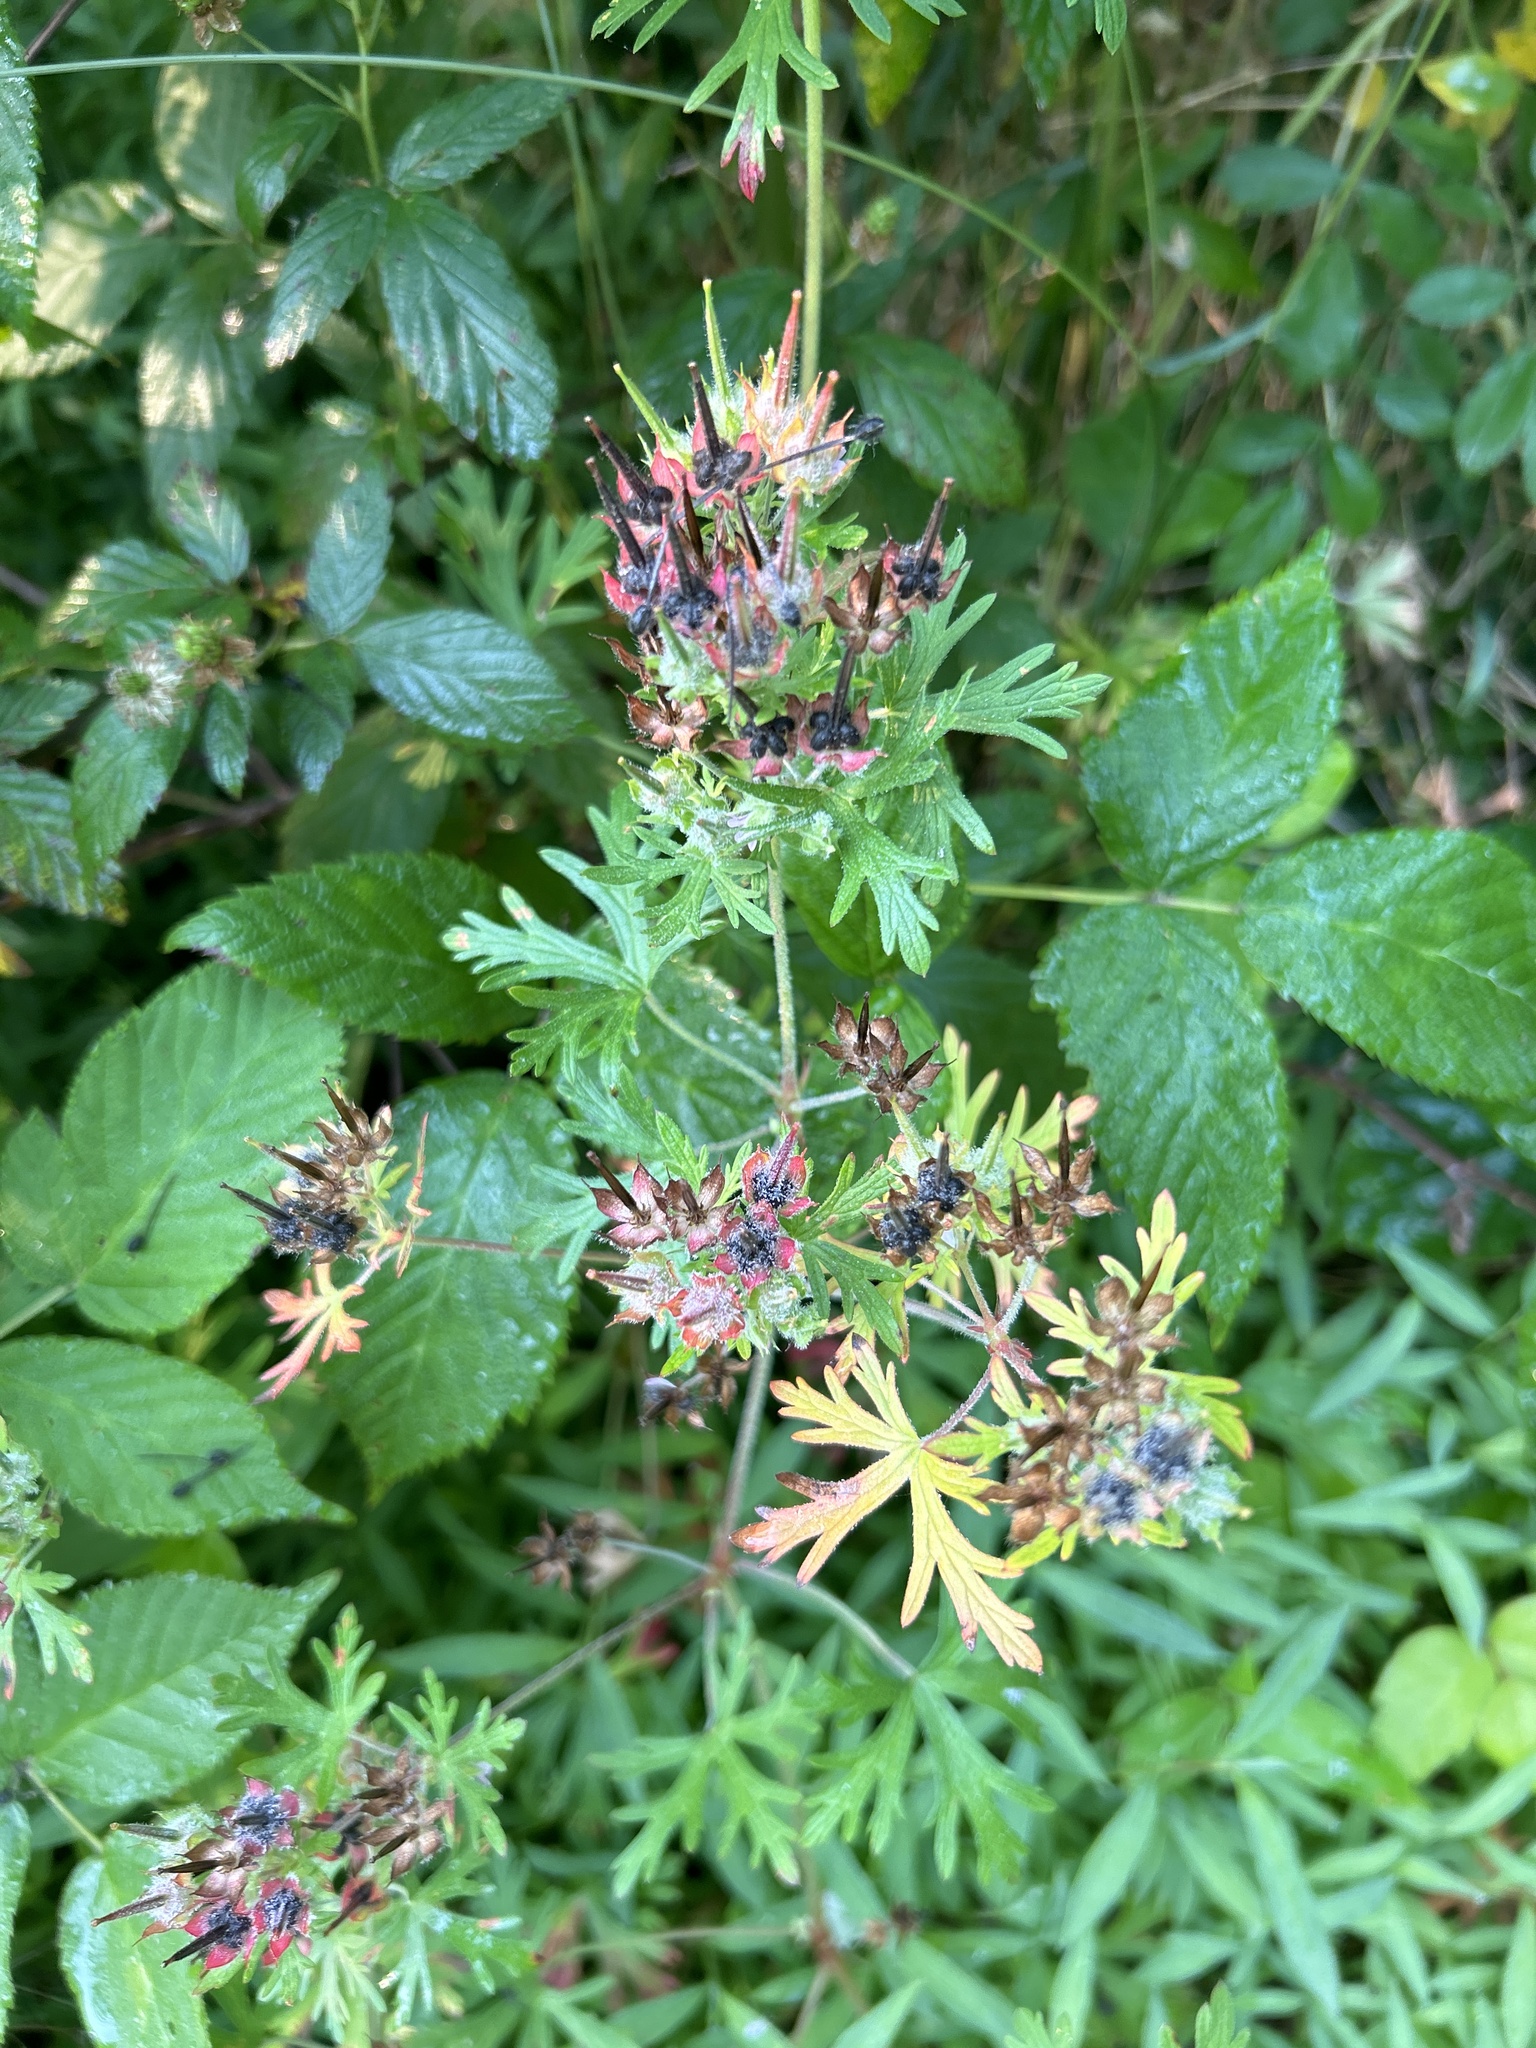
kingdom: Plantae
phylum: Tracheophyta
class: Magnoliopsida
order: Geraniales
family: Geraniaceae
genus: Geranium
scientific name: Geranium carolinianum
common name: Carolina crane's-bill
